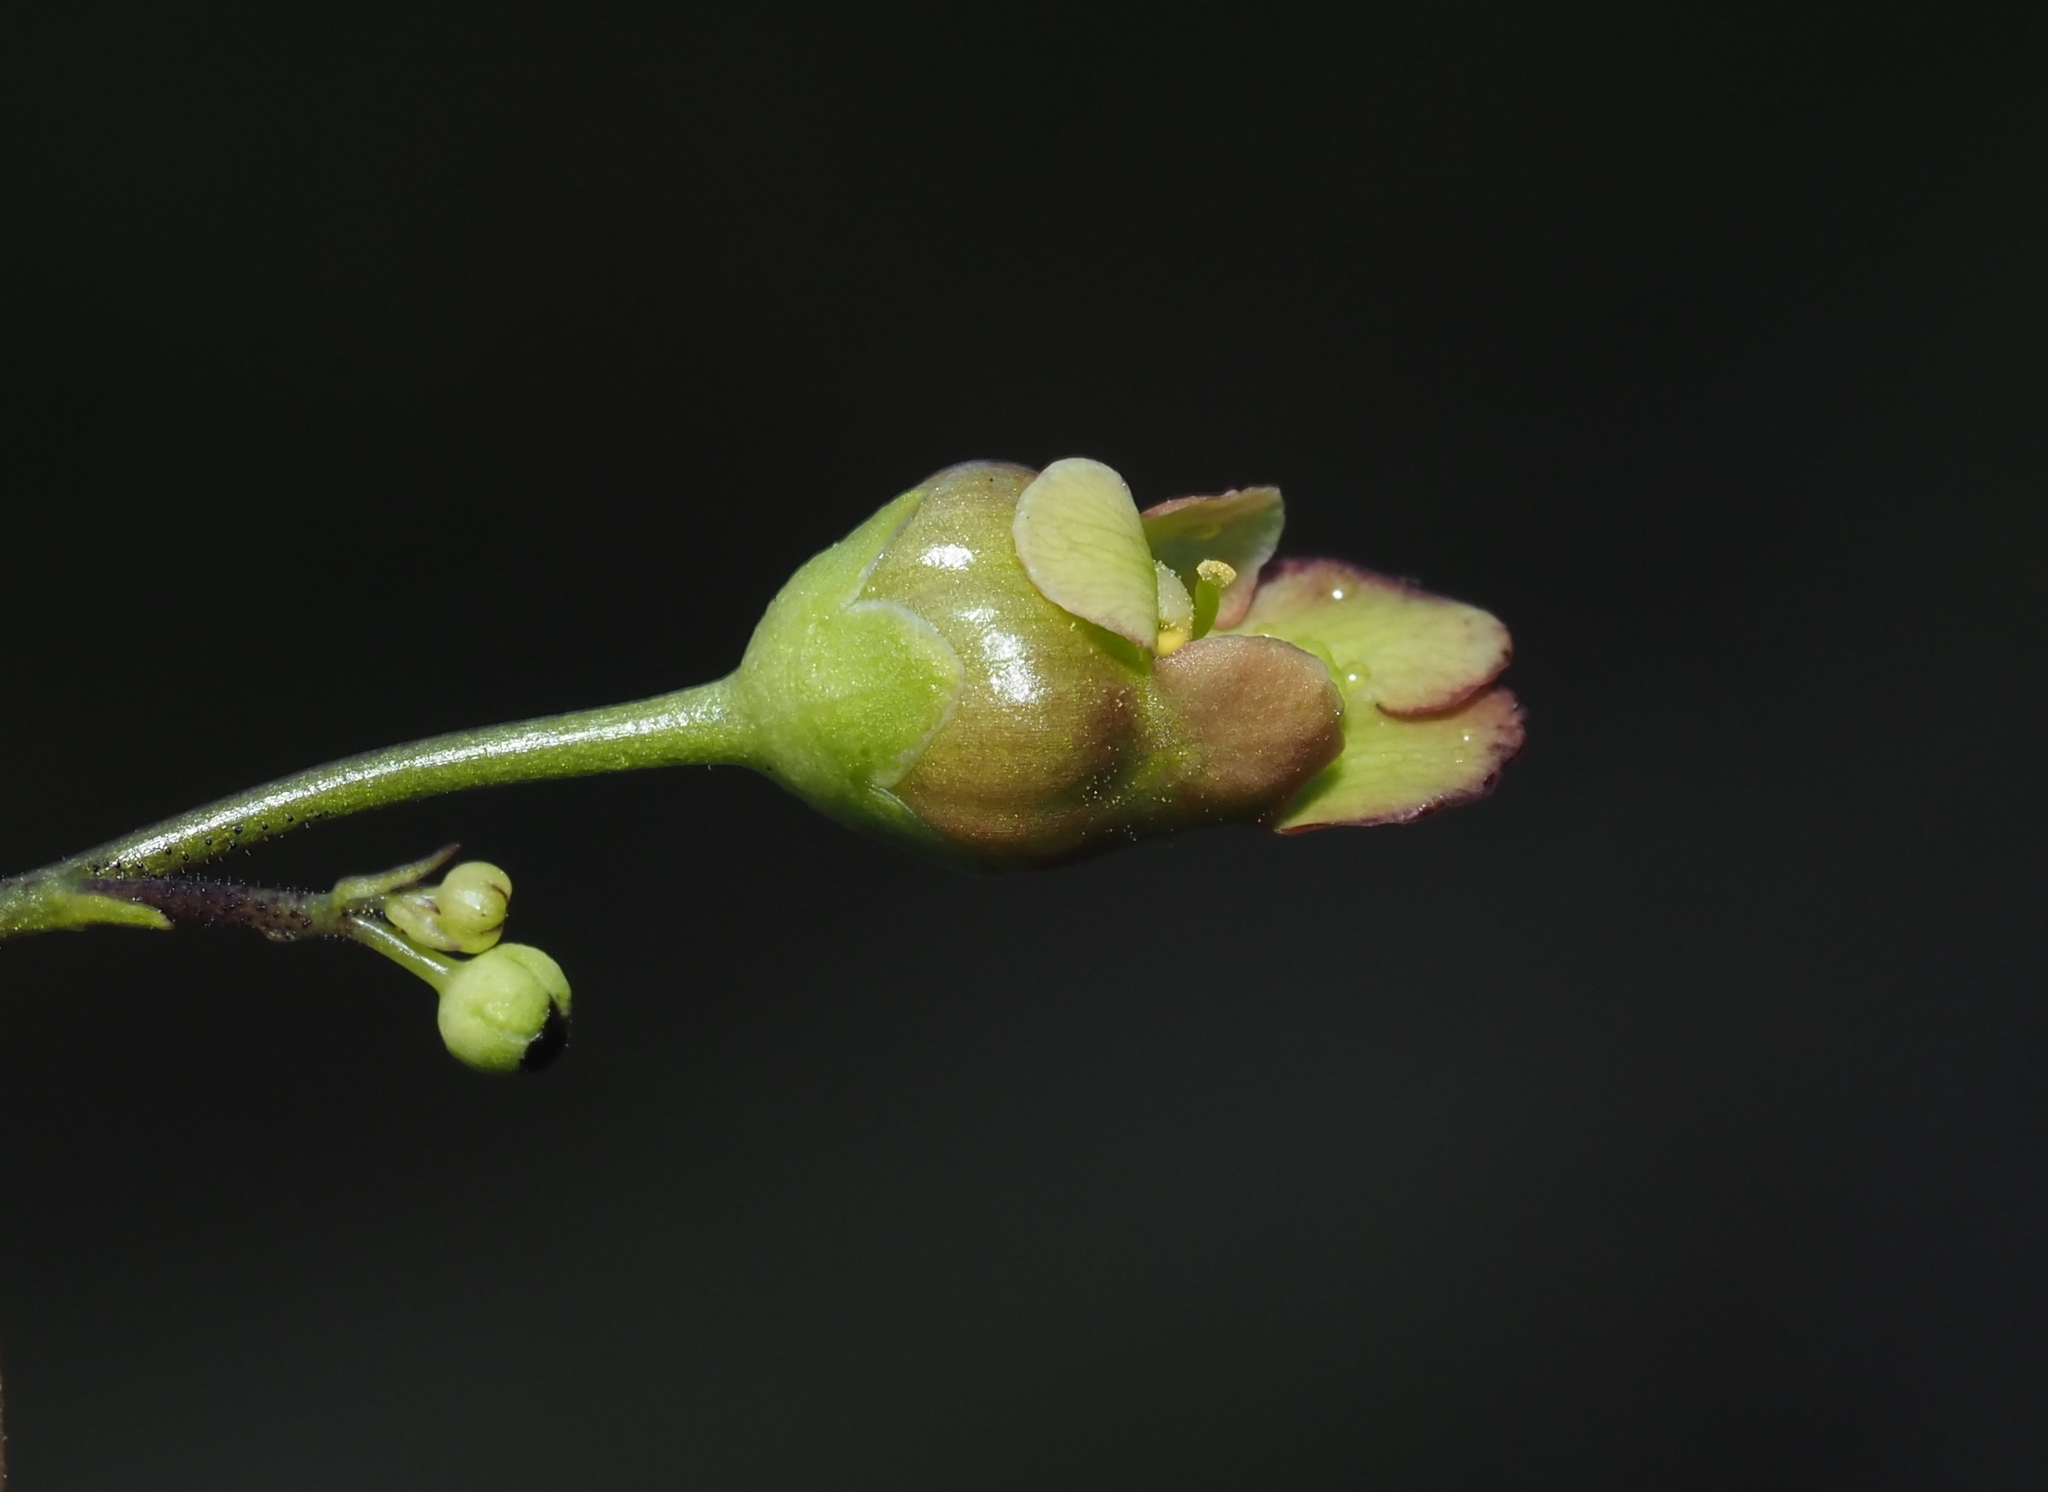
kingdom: Plantae
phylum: Tracheophyta
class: Magnoliopsida
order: Lamiales
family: Scrophulariaceae
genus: Scrophularia
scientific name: Scrophularia lanceolata
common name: American figwort
